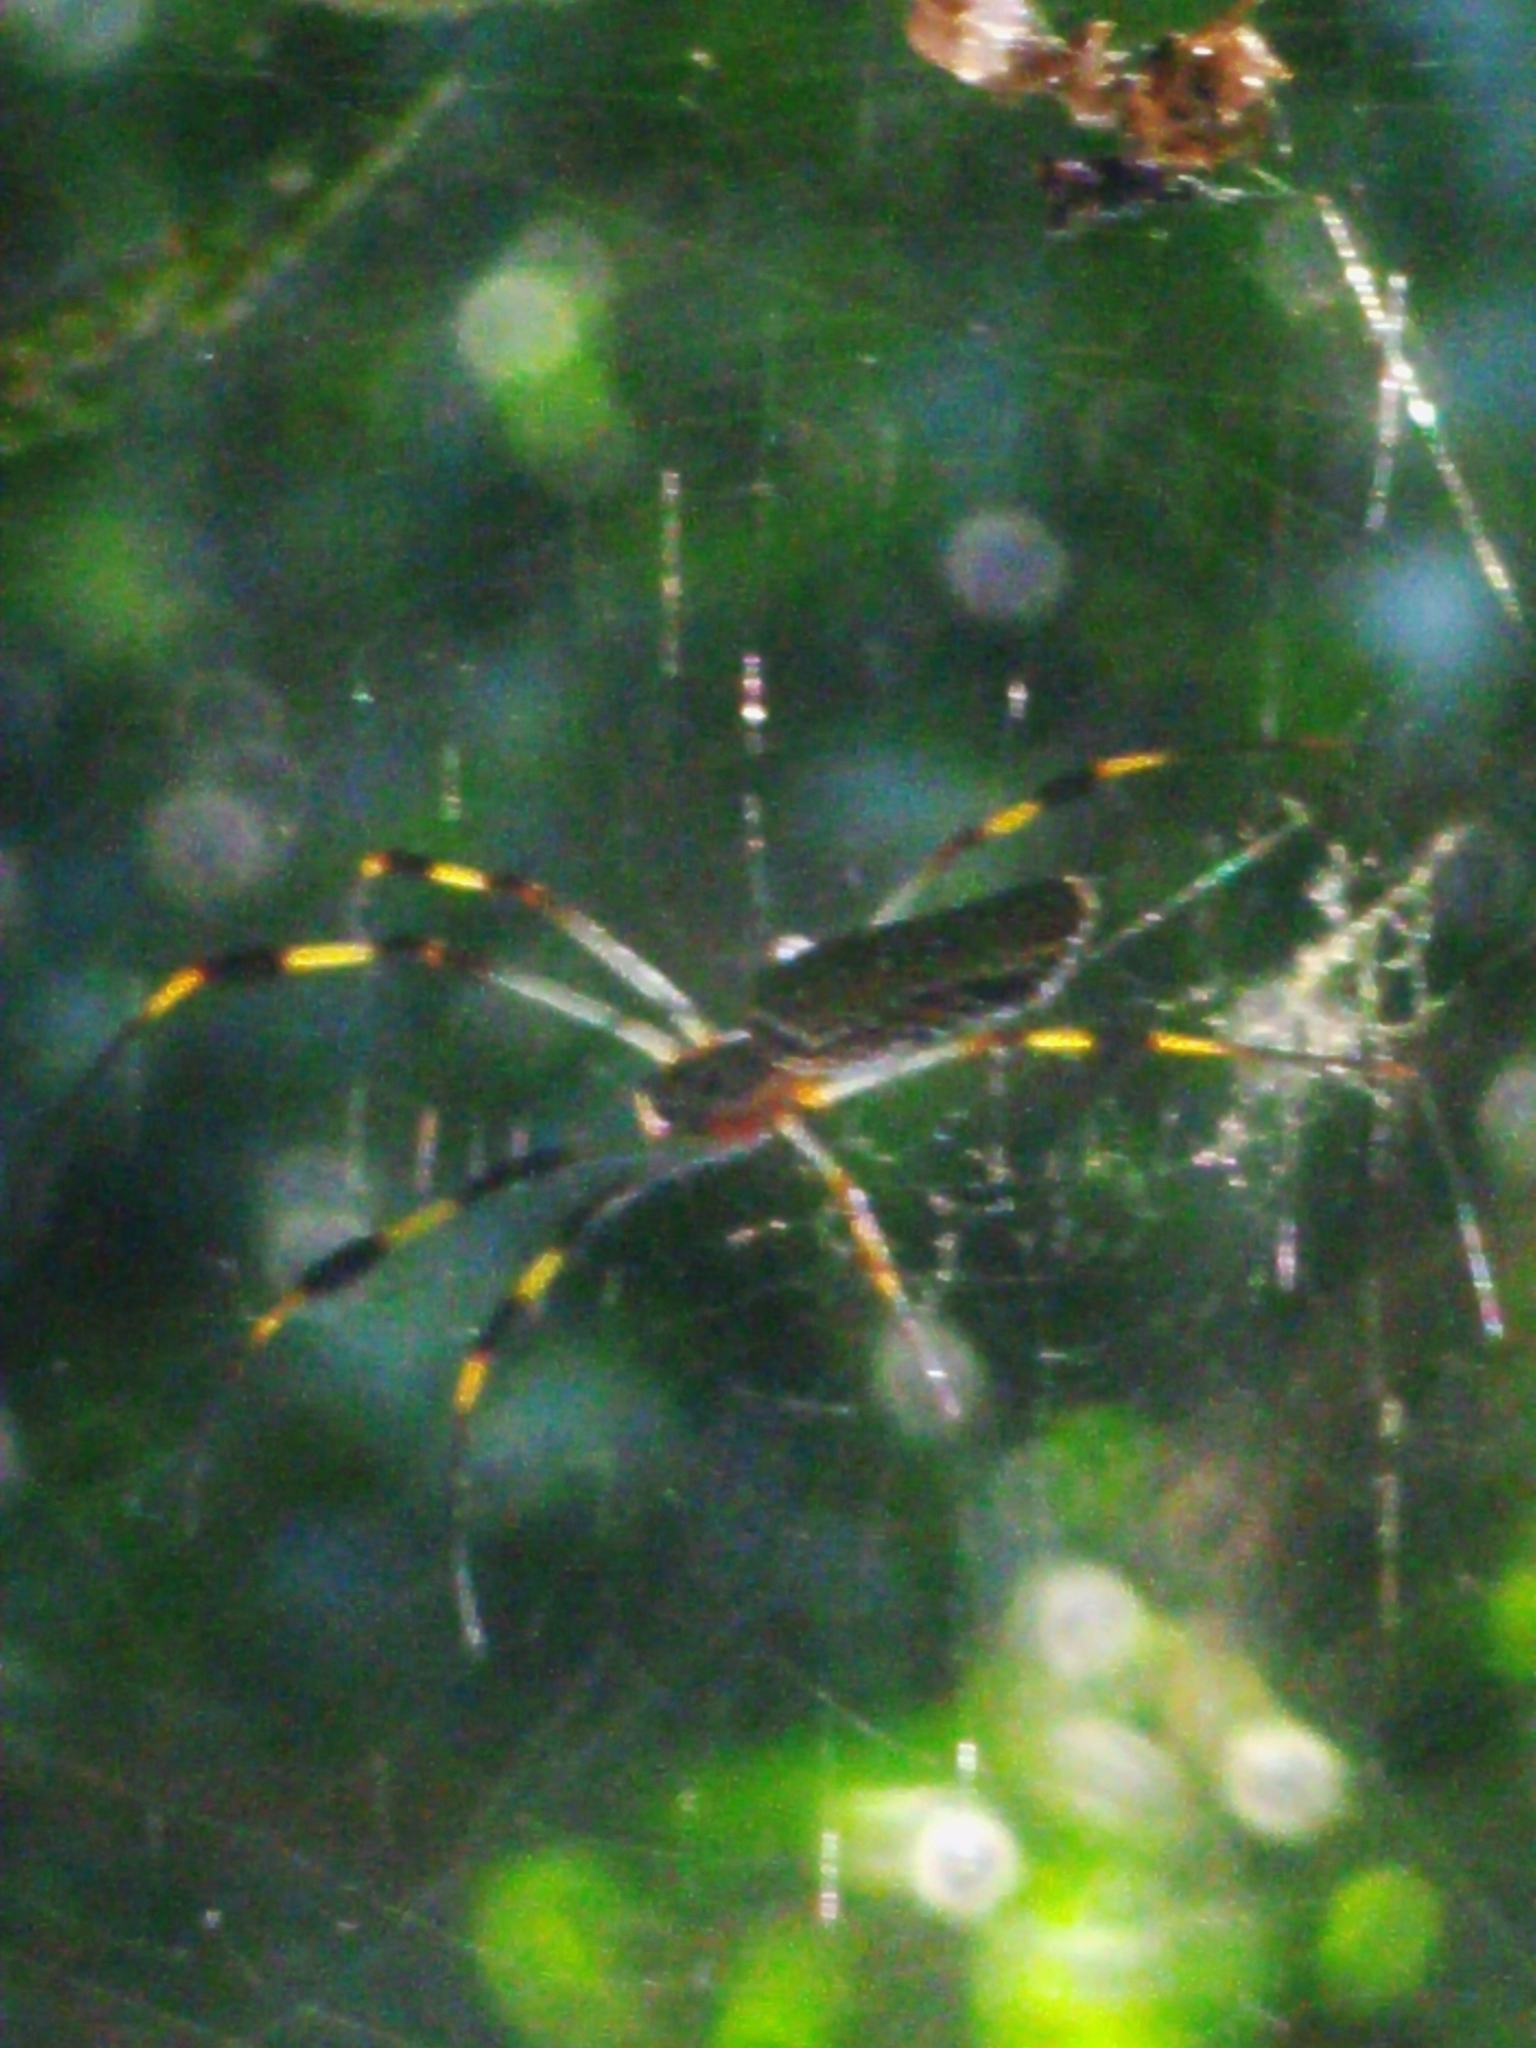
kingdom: Animalia
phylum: Arthropoda
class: Arachnida
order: Araneae
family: Araneidae
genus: Trichonephila
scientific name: Trichonephila clavipes
